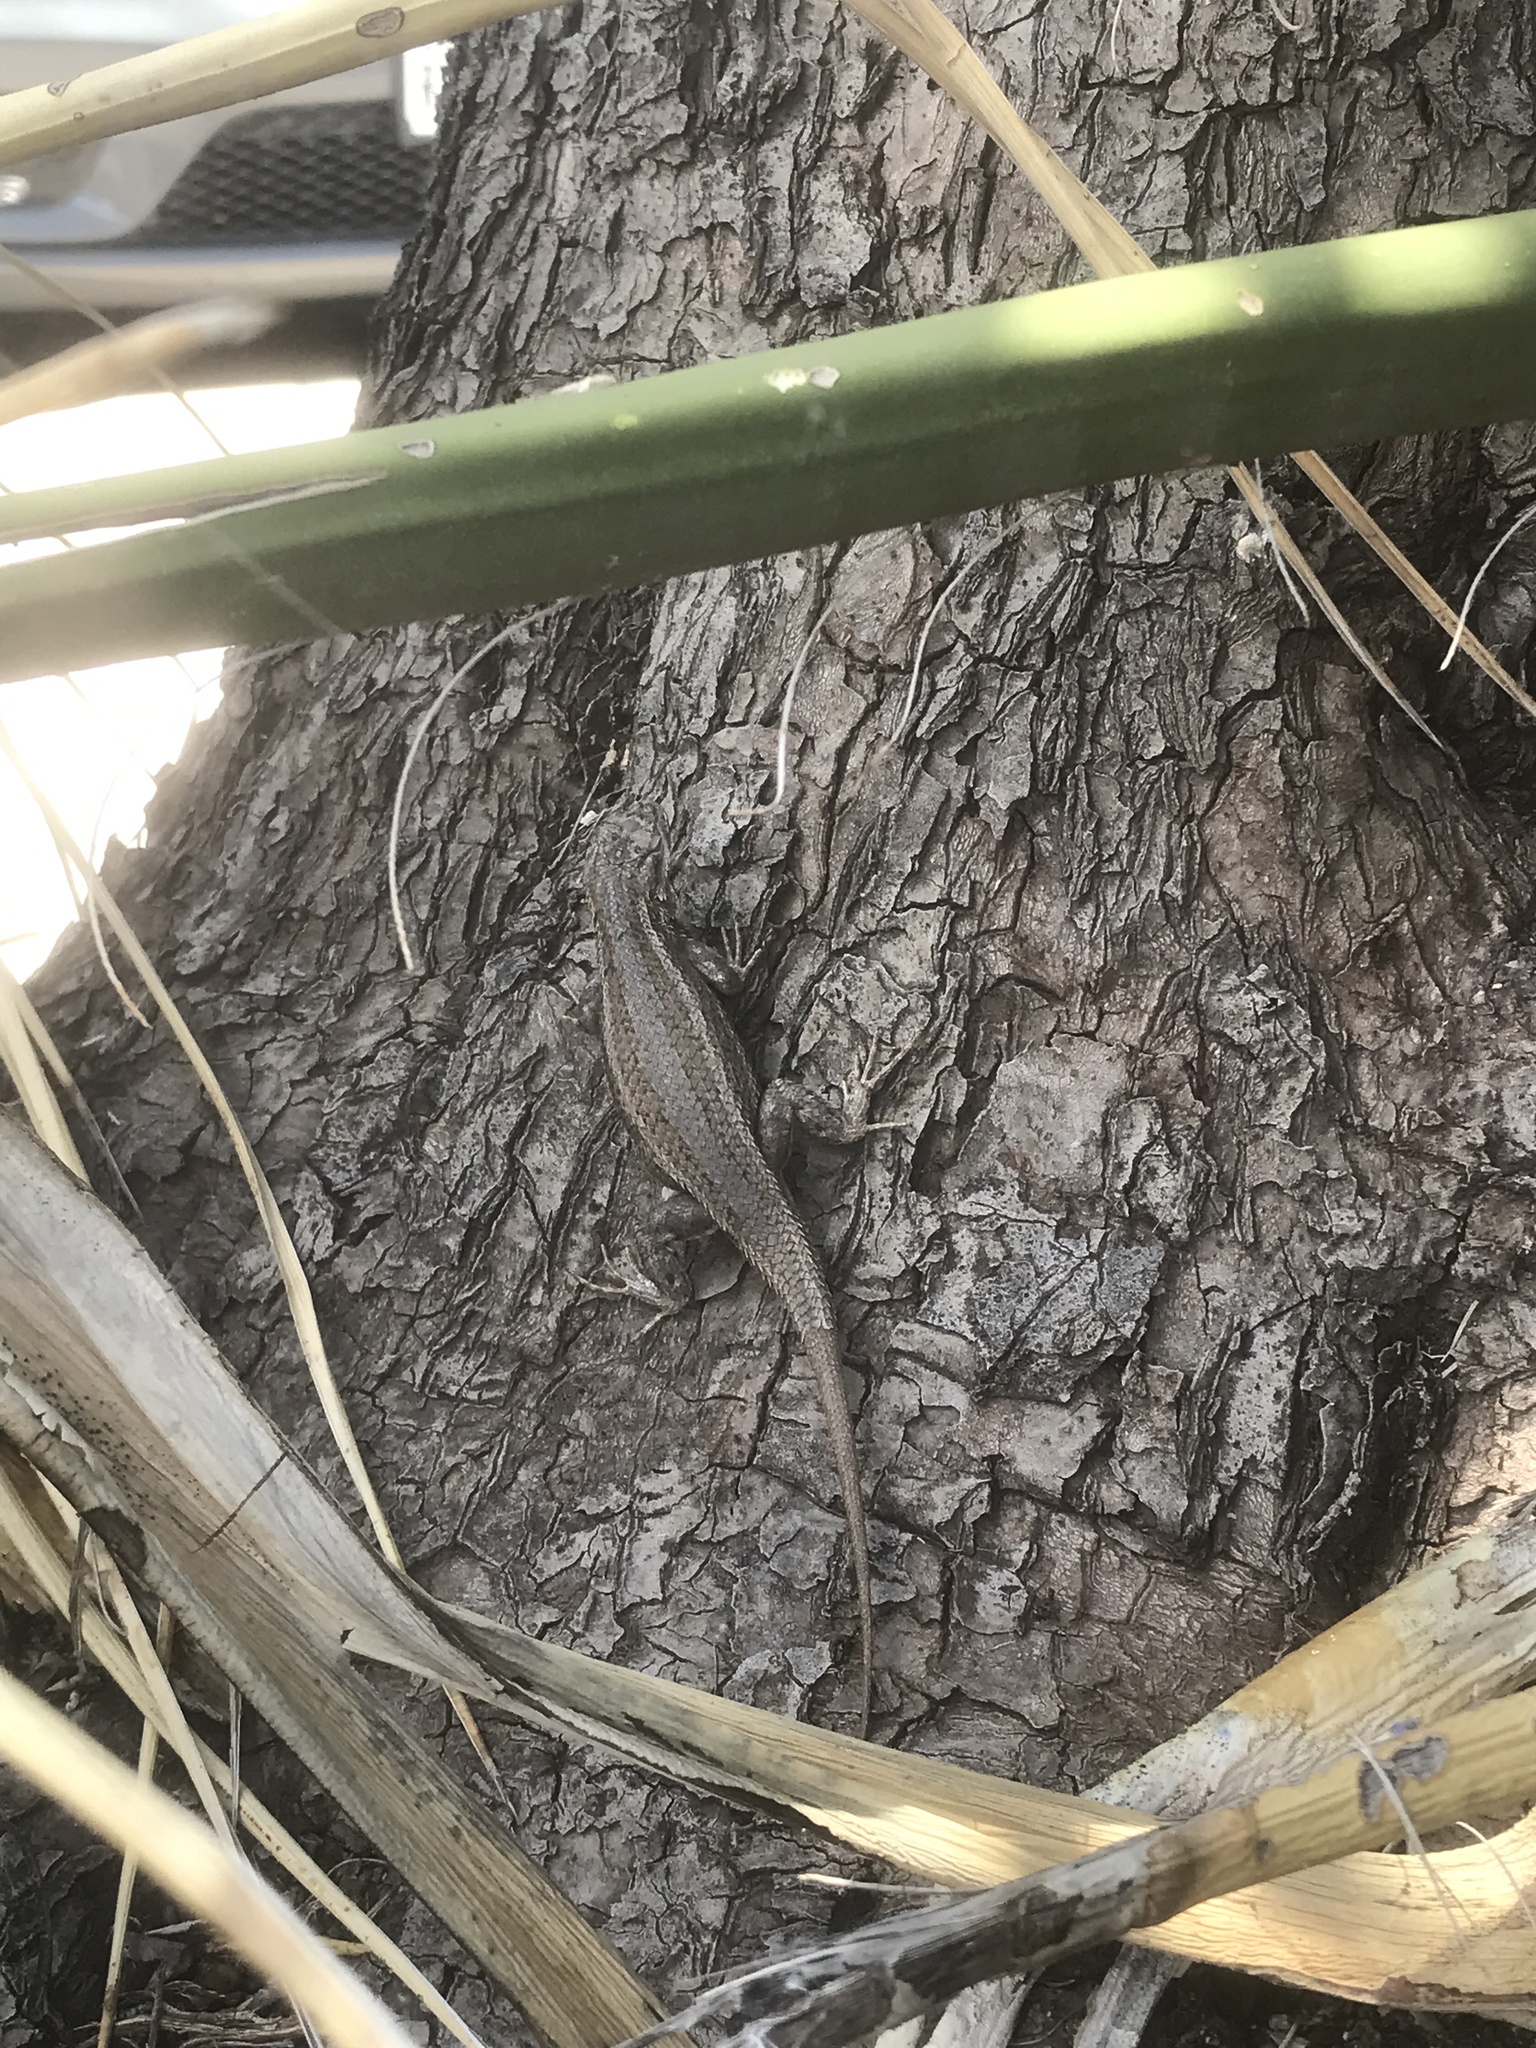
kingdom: Animalia
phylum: Chordata
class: Squamata
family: Phrynosomatidae
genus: Sceloporus
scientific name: Sceloporus cowlesi
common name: White sands prairie lizard
